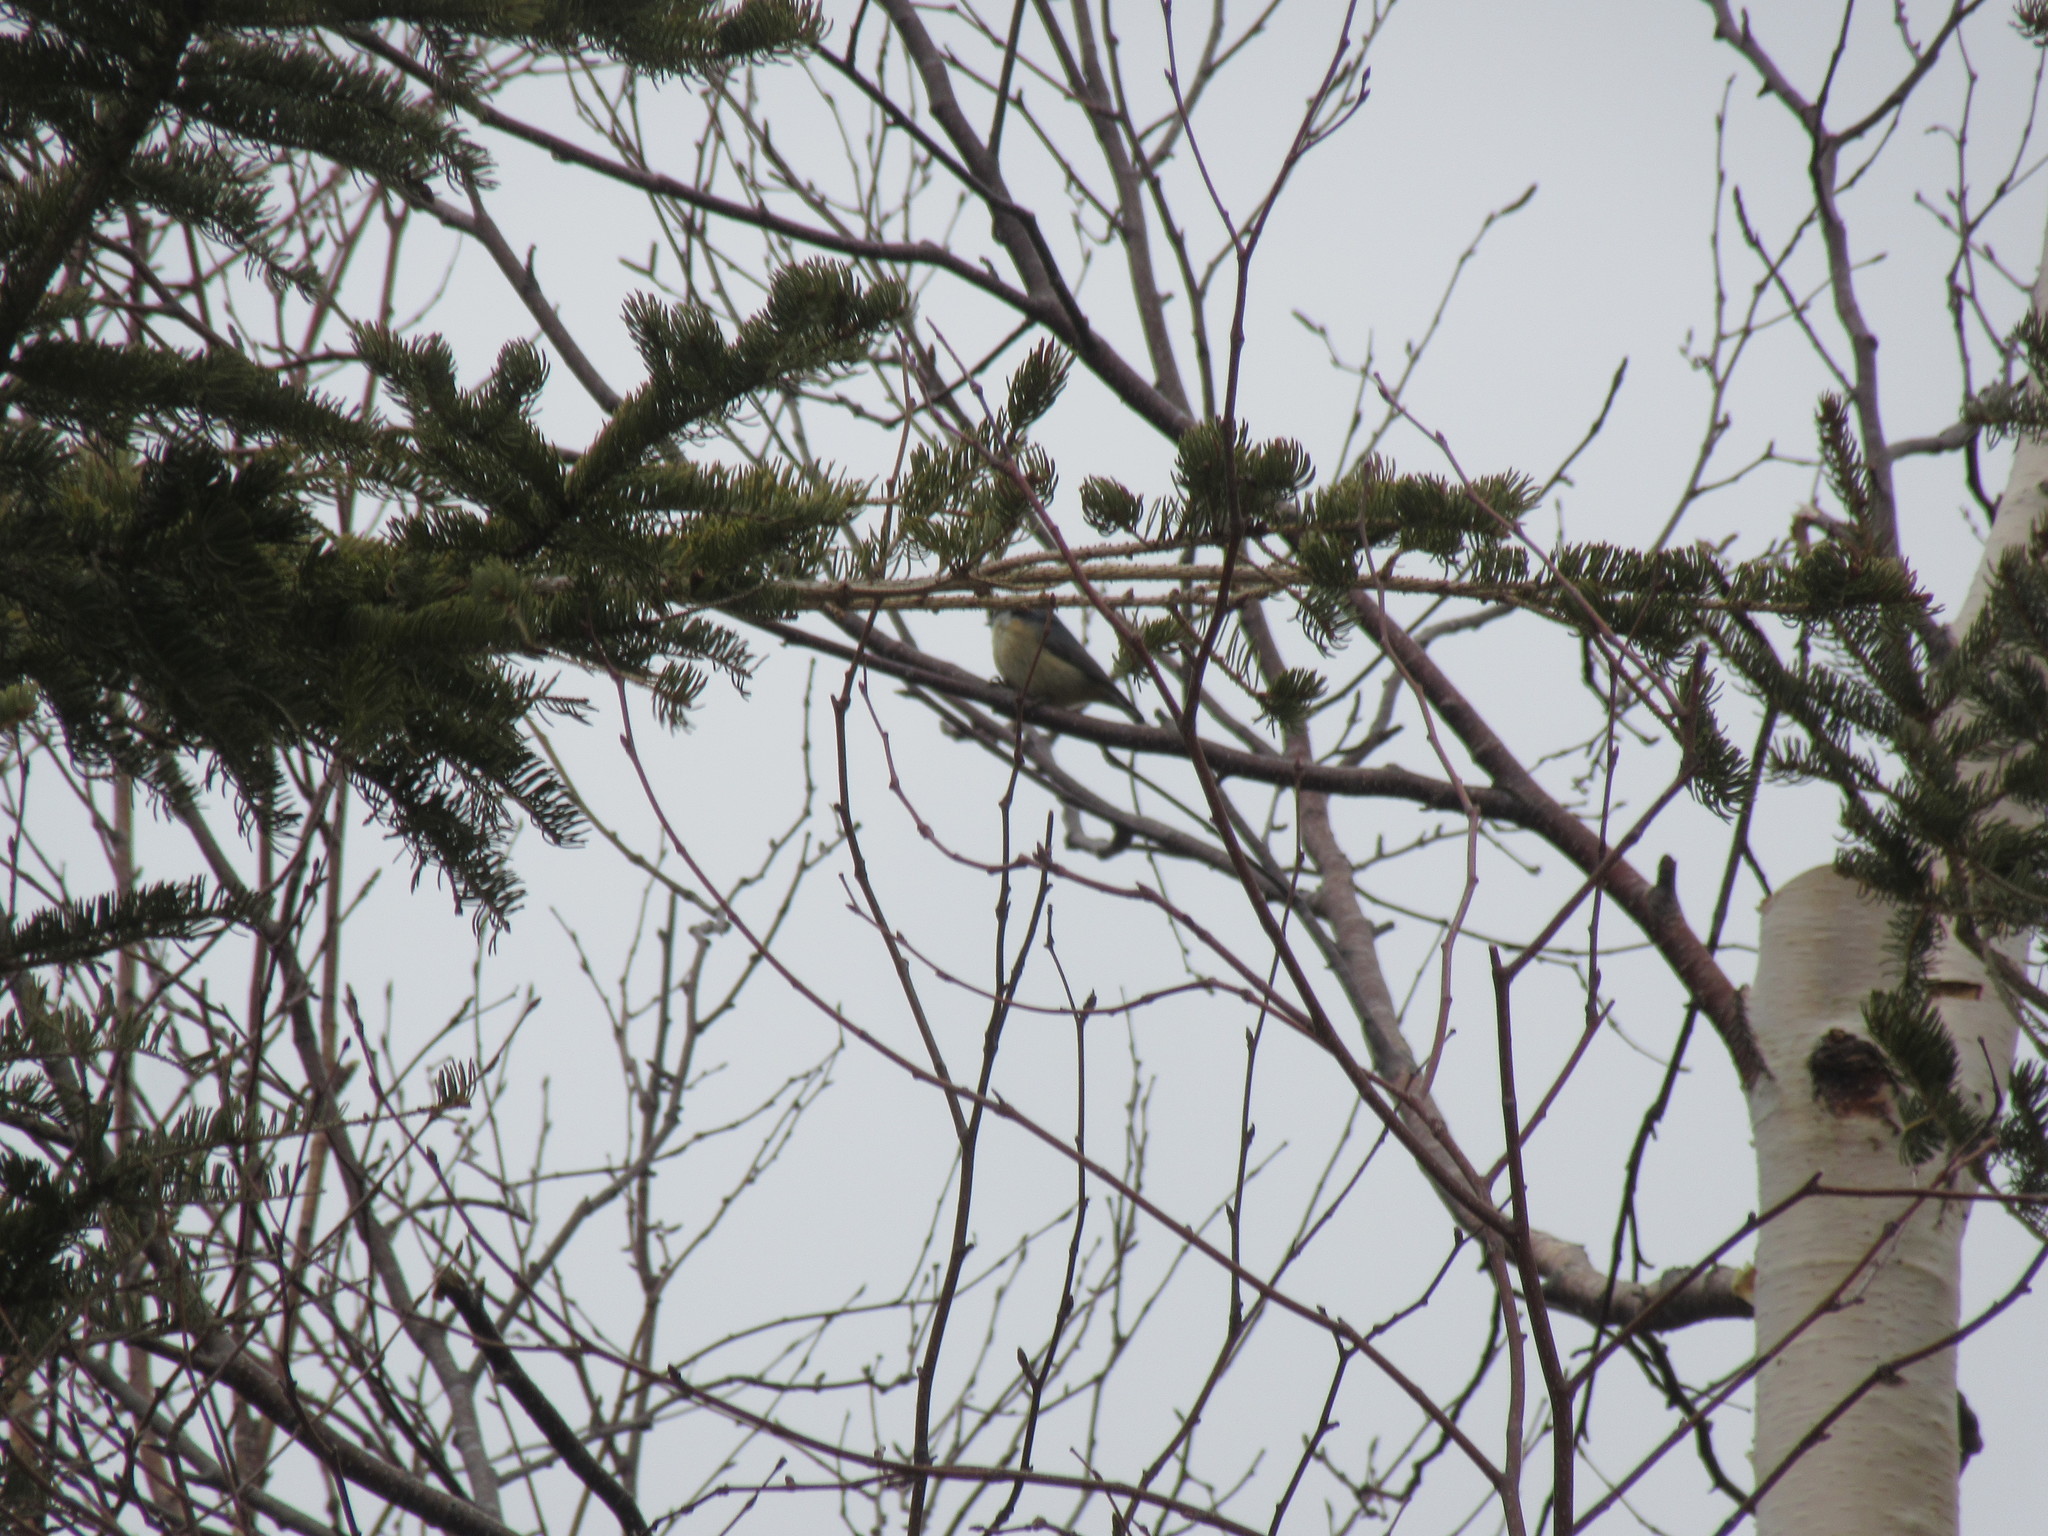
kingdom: Animalia
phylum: Chordata
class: Aves
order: Passeriformes
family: Sittidae
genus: Sitta
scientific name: Sitta canadensis
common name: Red-breasted nuthatch
